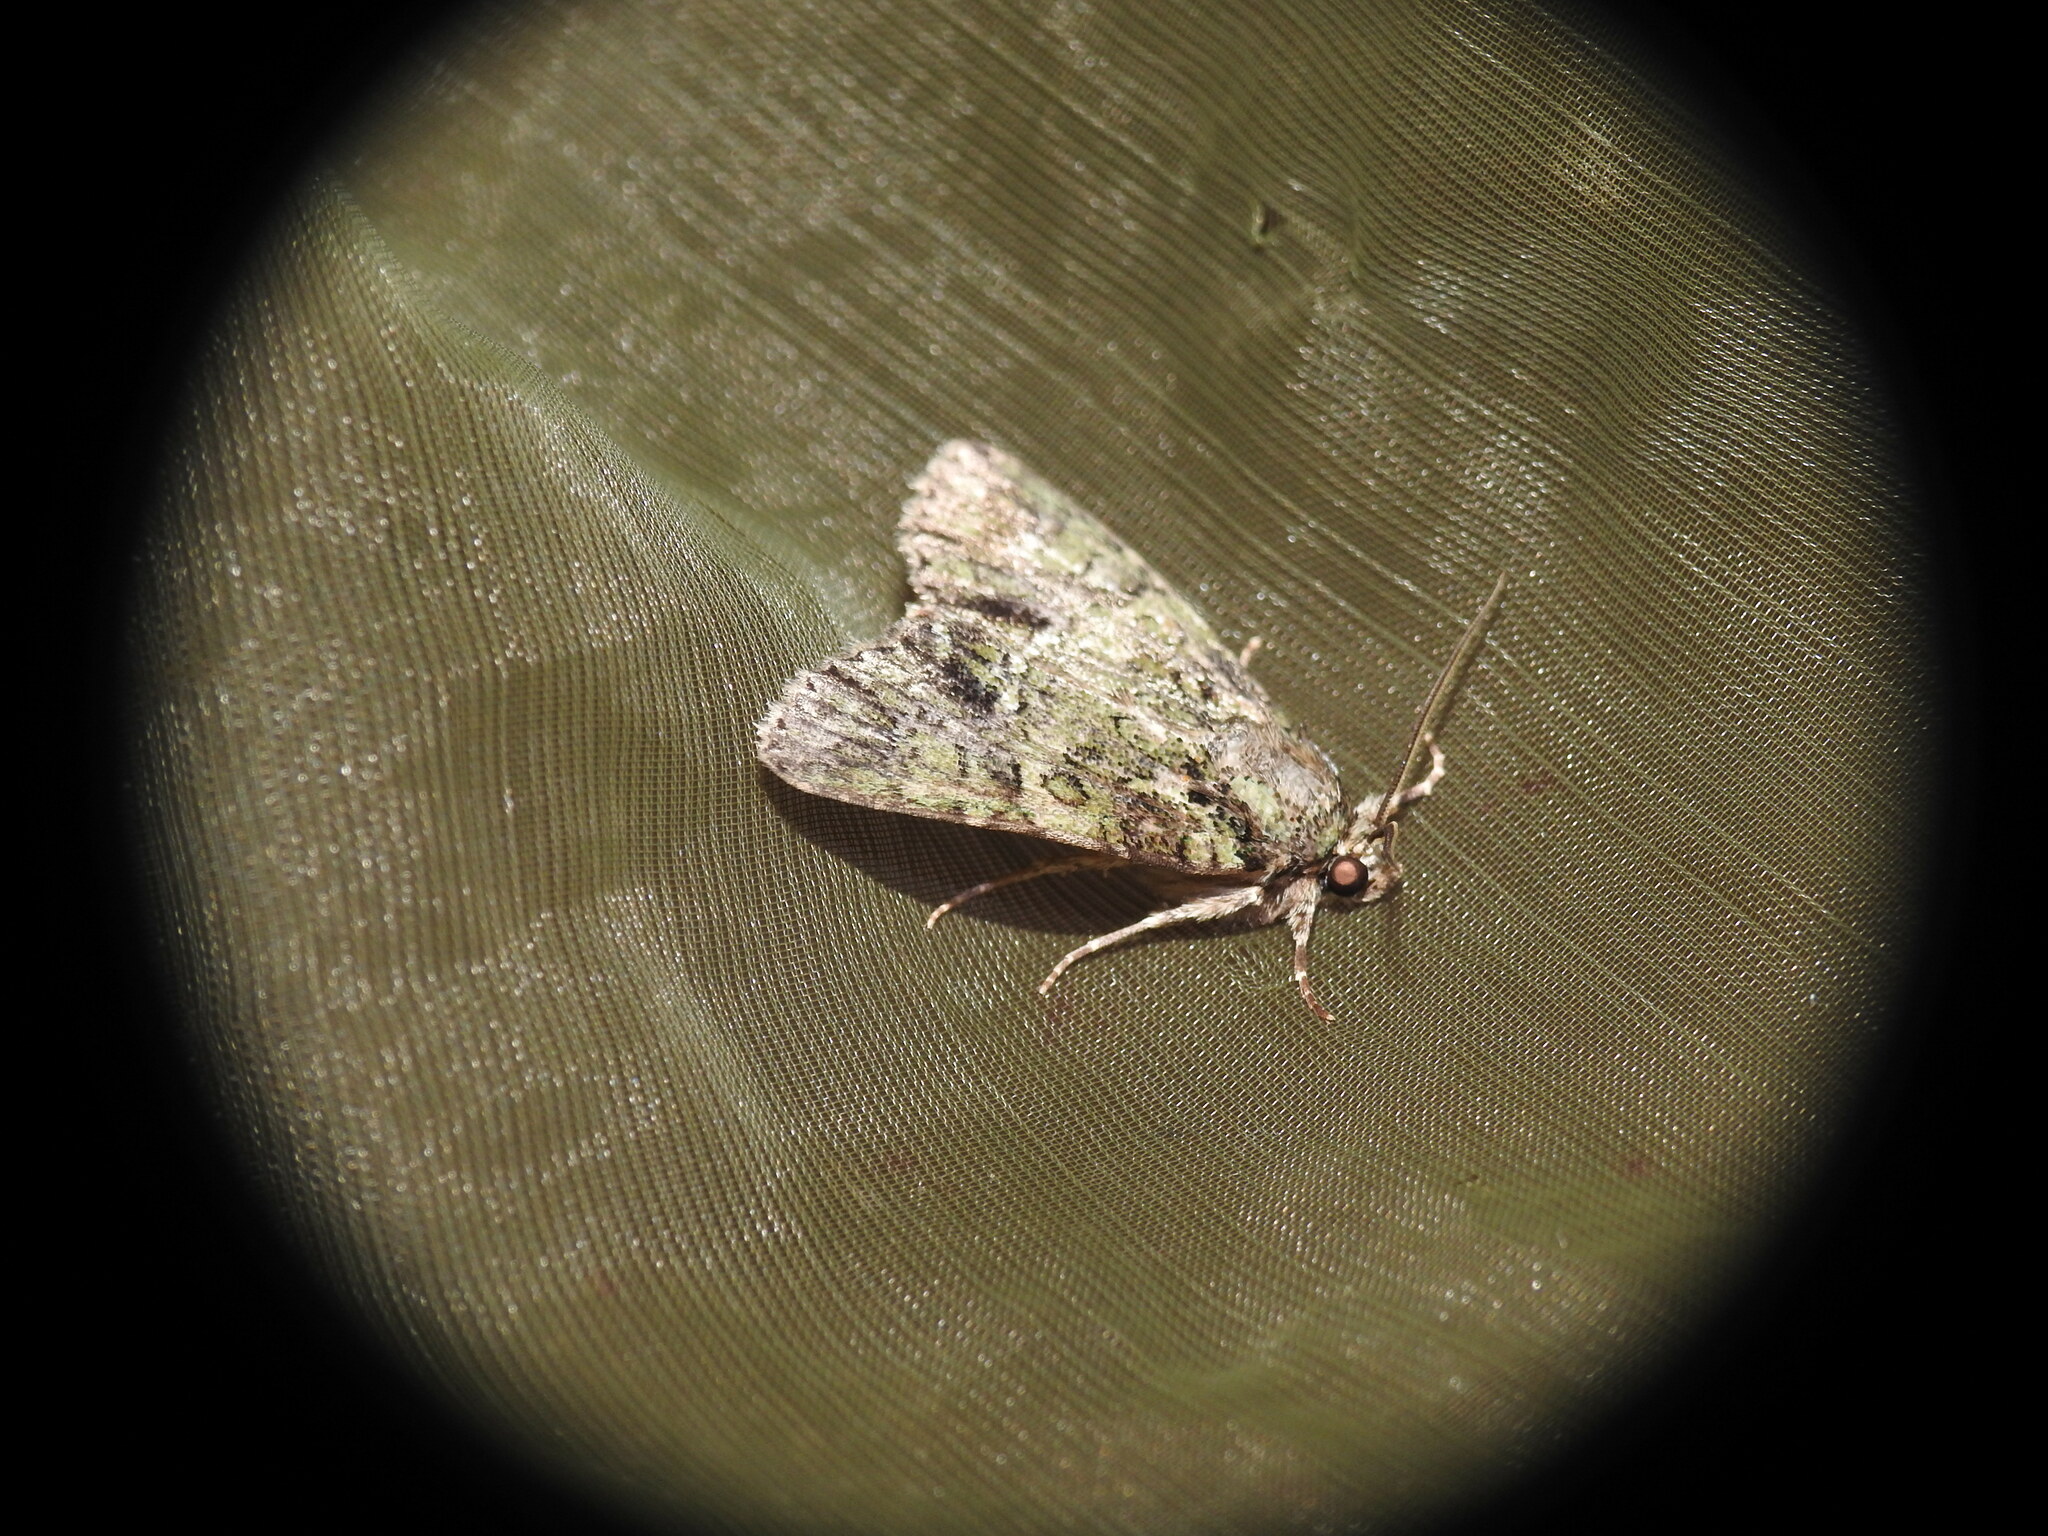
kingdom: Animalia
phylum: Arthropoda
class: Insecta
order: Lepidoptera
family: Noctuidae
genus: Polyphaenis
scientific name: Polyphaenis sericata
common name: Guernsey underwing
